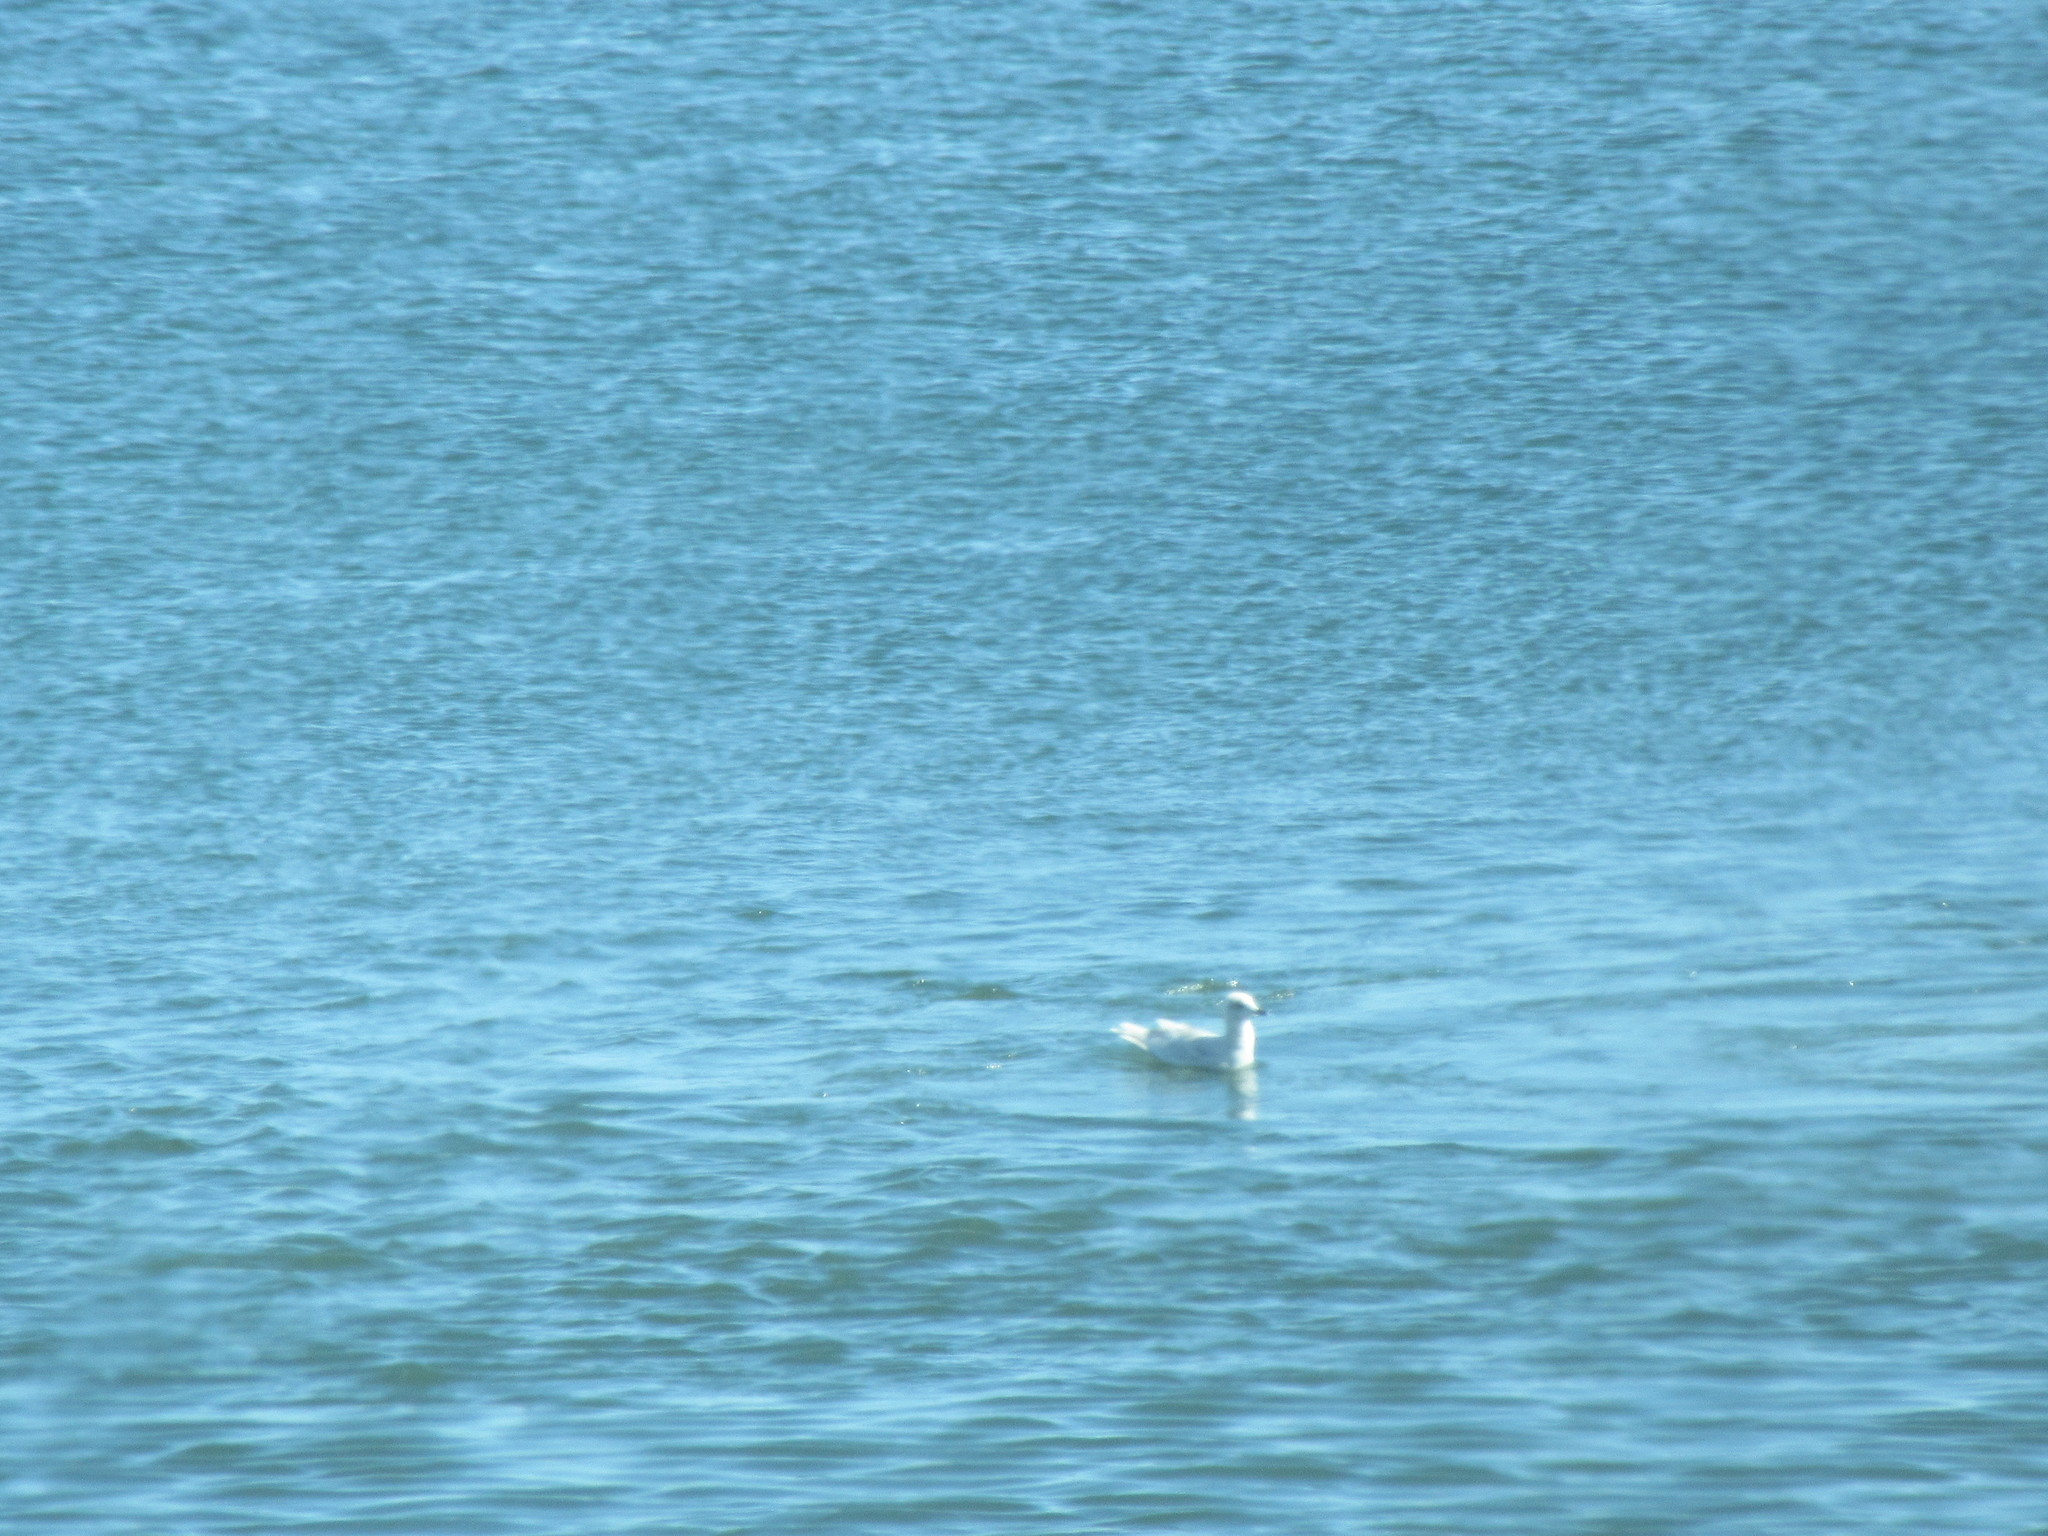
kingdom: Animalia
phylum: Chordata
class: Aves
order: Charadriiformes
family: Laridae
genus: Larus
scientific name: Larus glaucoides
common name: Iceland gull
